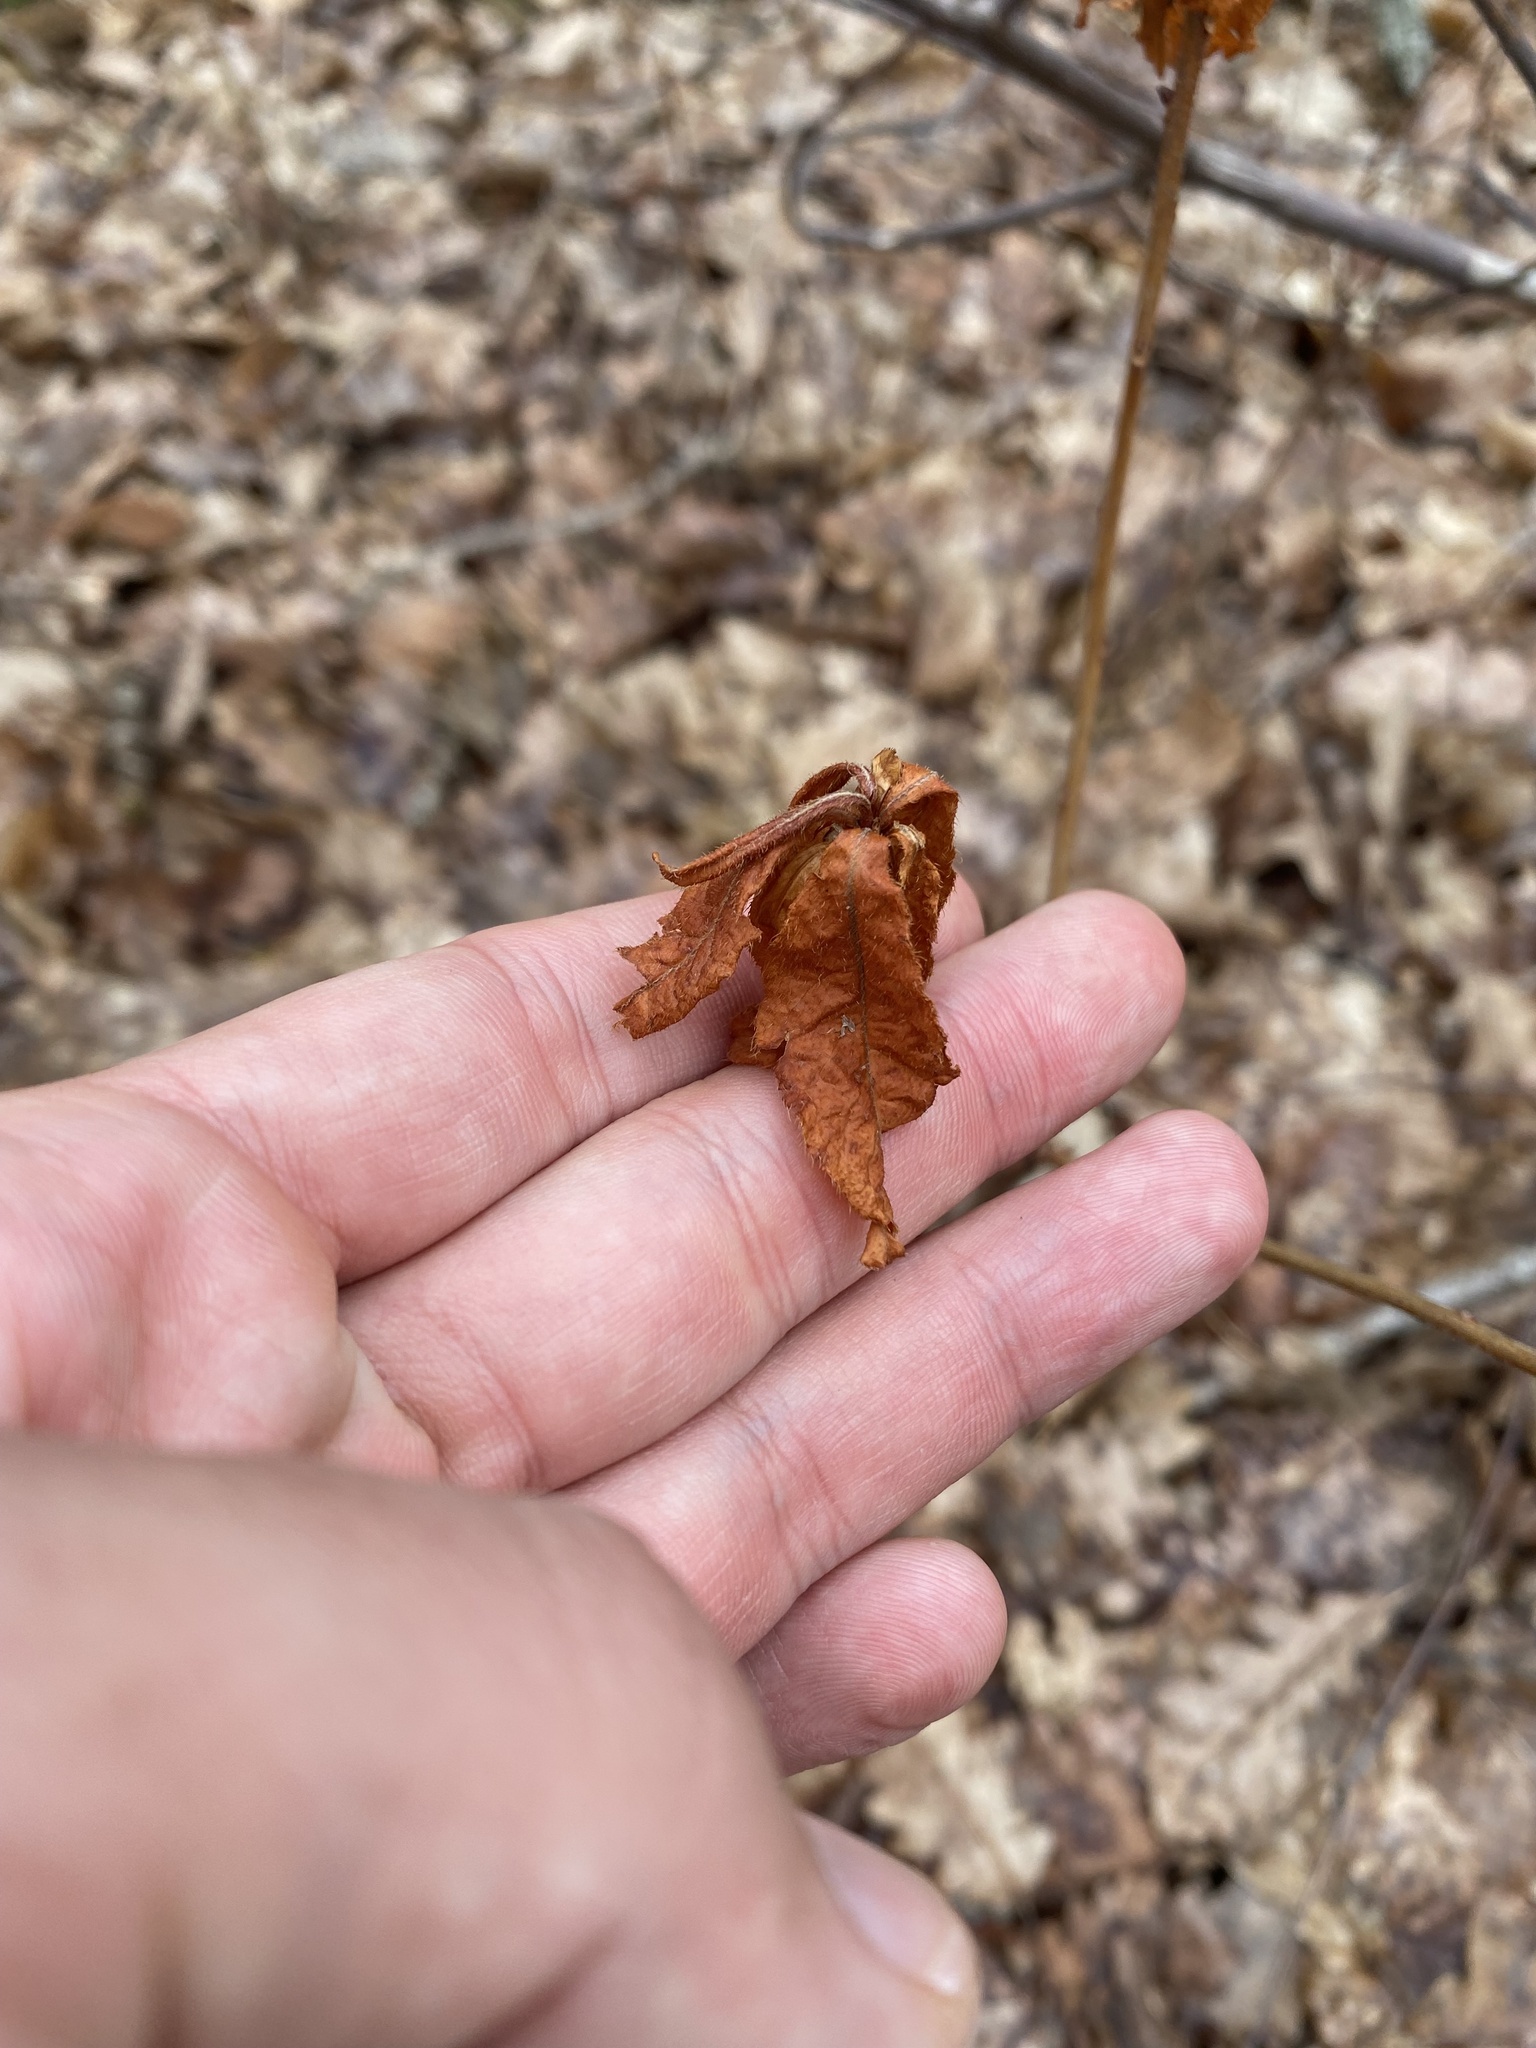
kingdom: Plantae
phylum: Tracheophyta
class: Magnoliopsida
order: Ericales
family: Ericaceae
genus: Rhododendron
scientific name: Rhododendron luteum
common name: Yellow azalea
